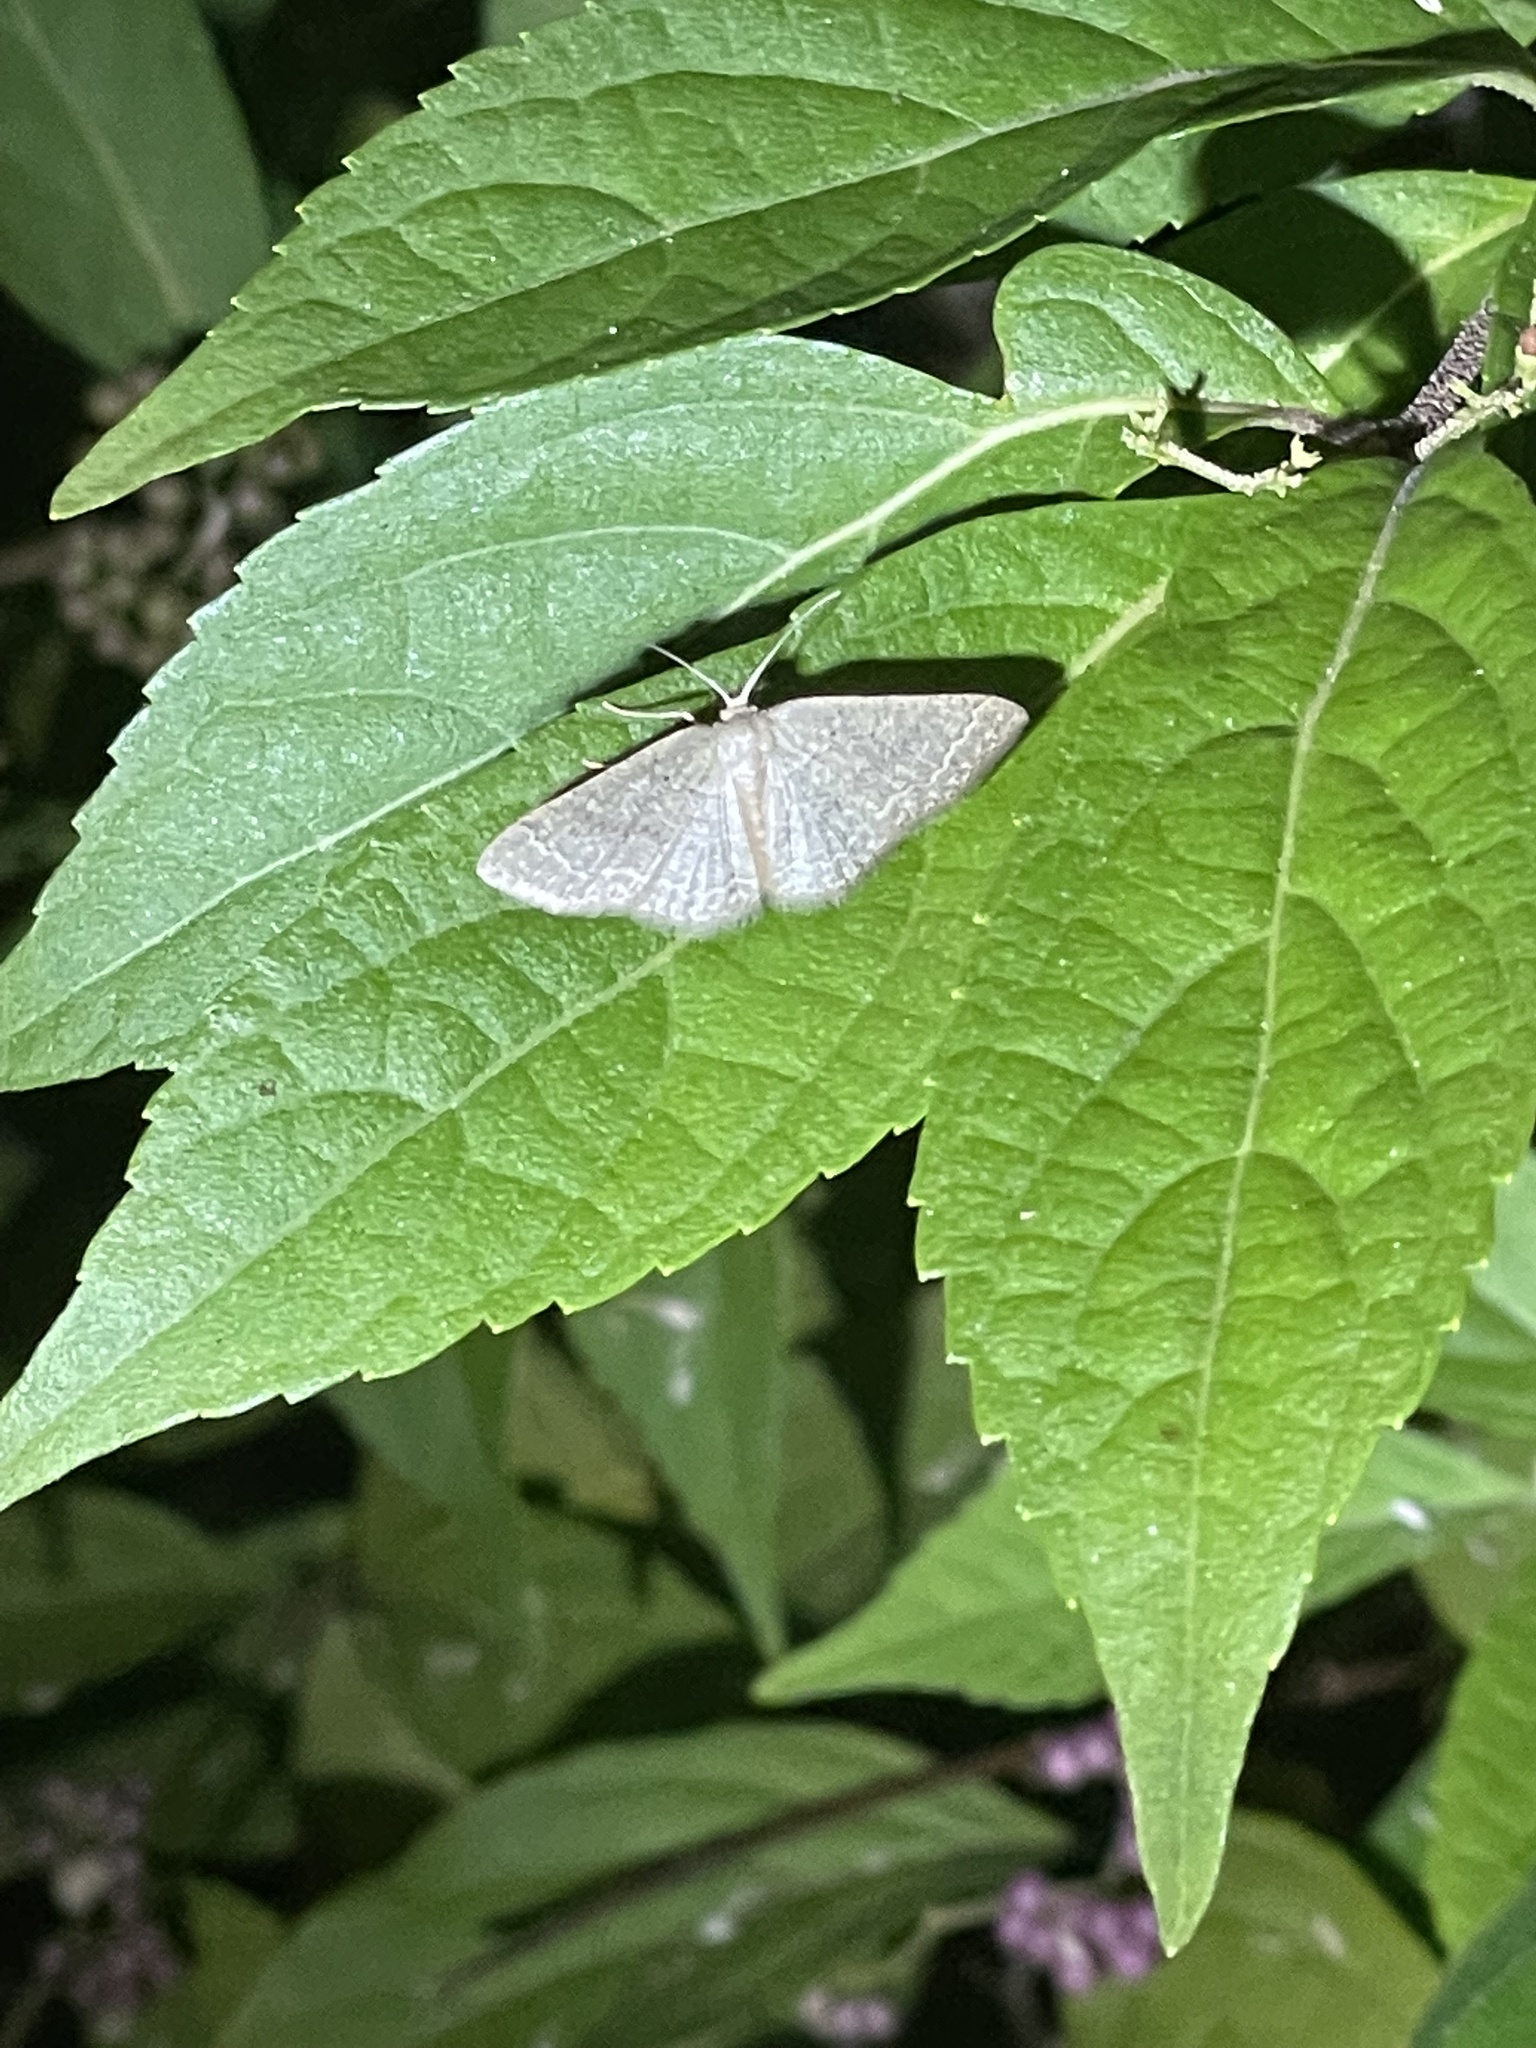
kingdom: Animalia
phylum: Arthropoda
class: Insecta
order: Lepidoptera
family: Geometridae
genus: Pleuroprucha
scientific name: Pleuroprucha insulsaria
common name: Common tan wave
